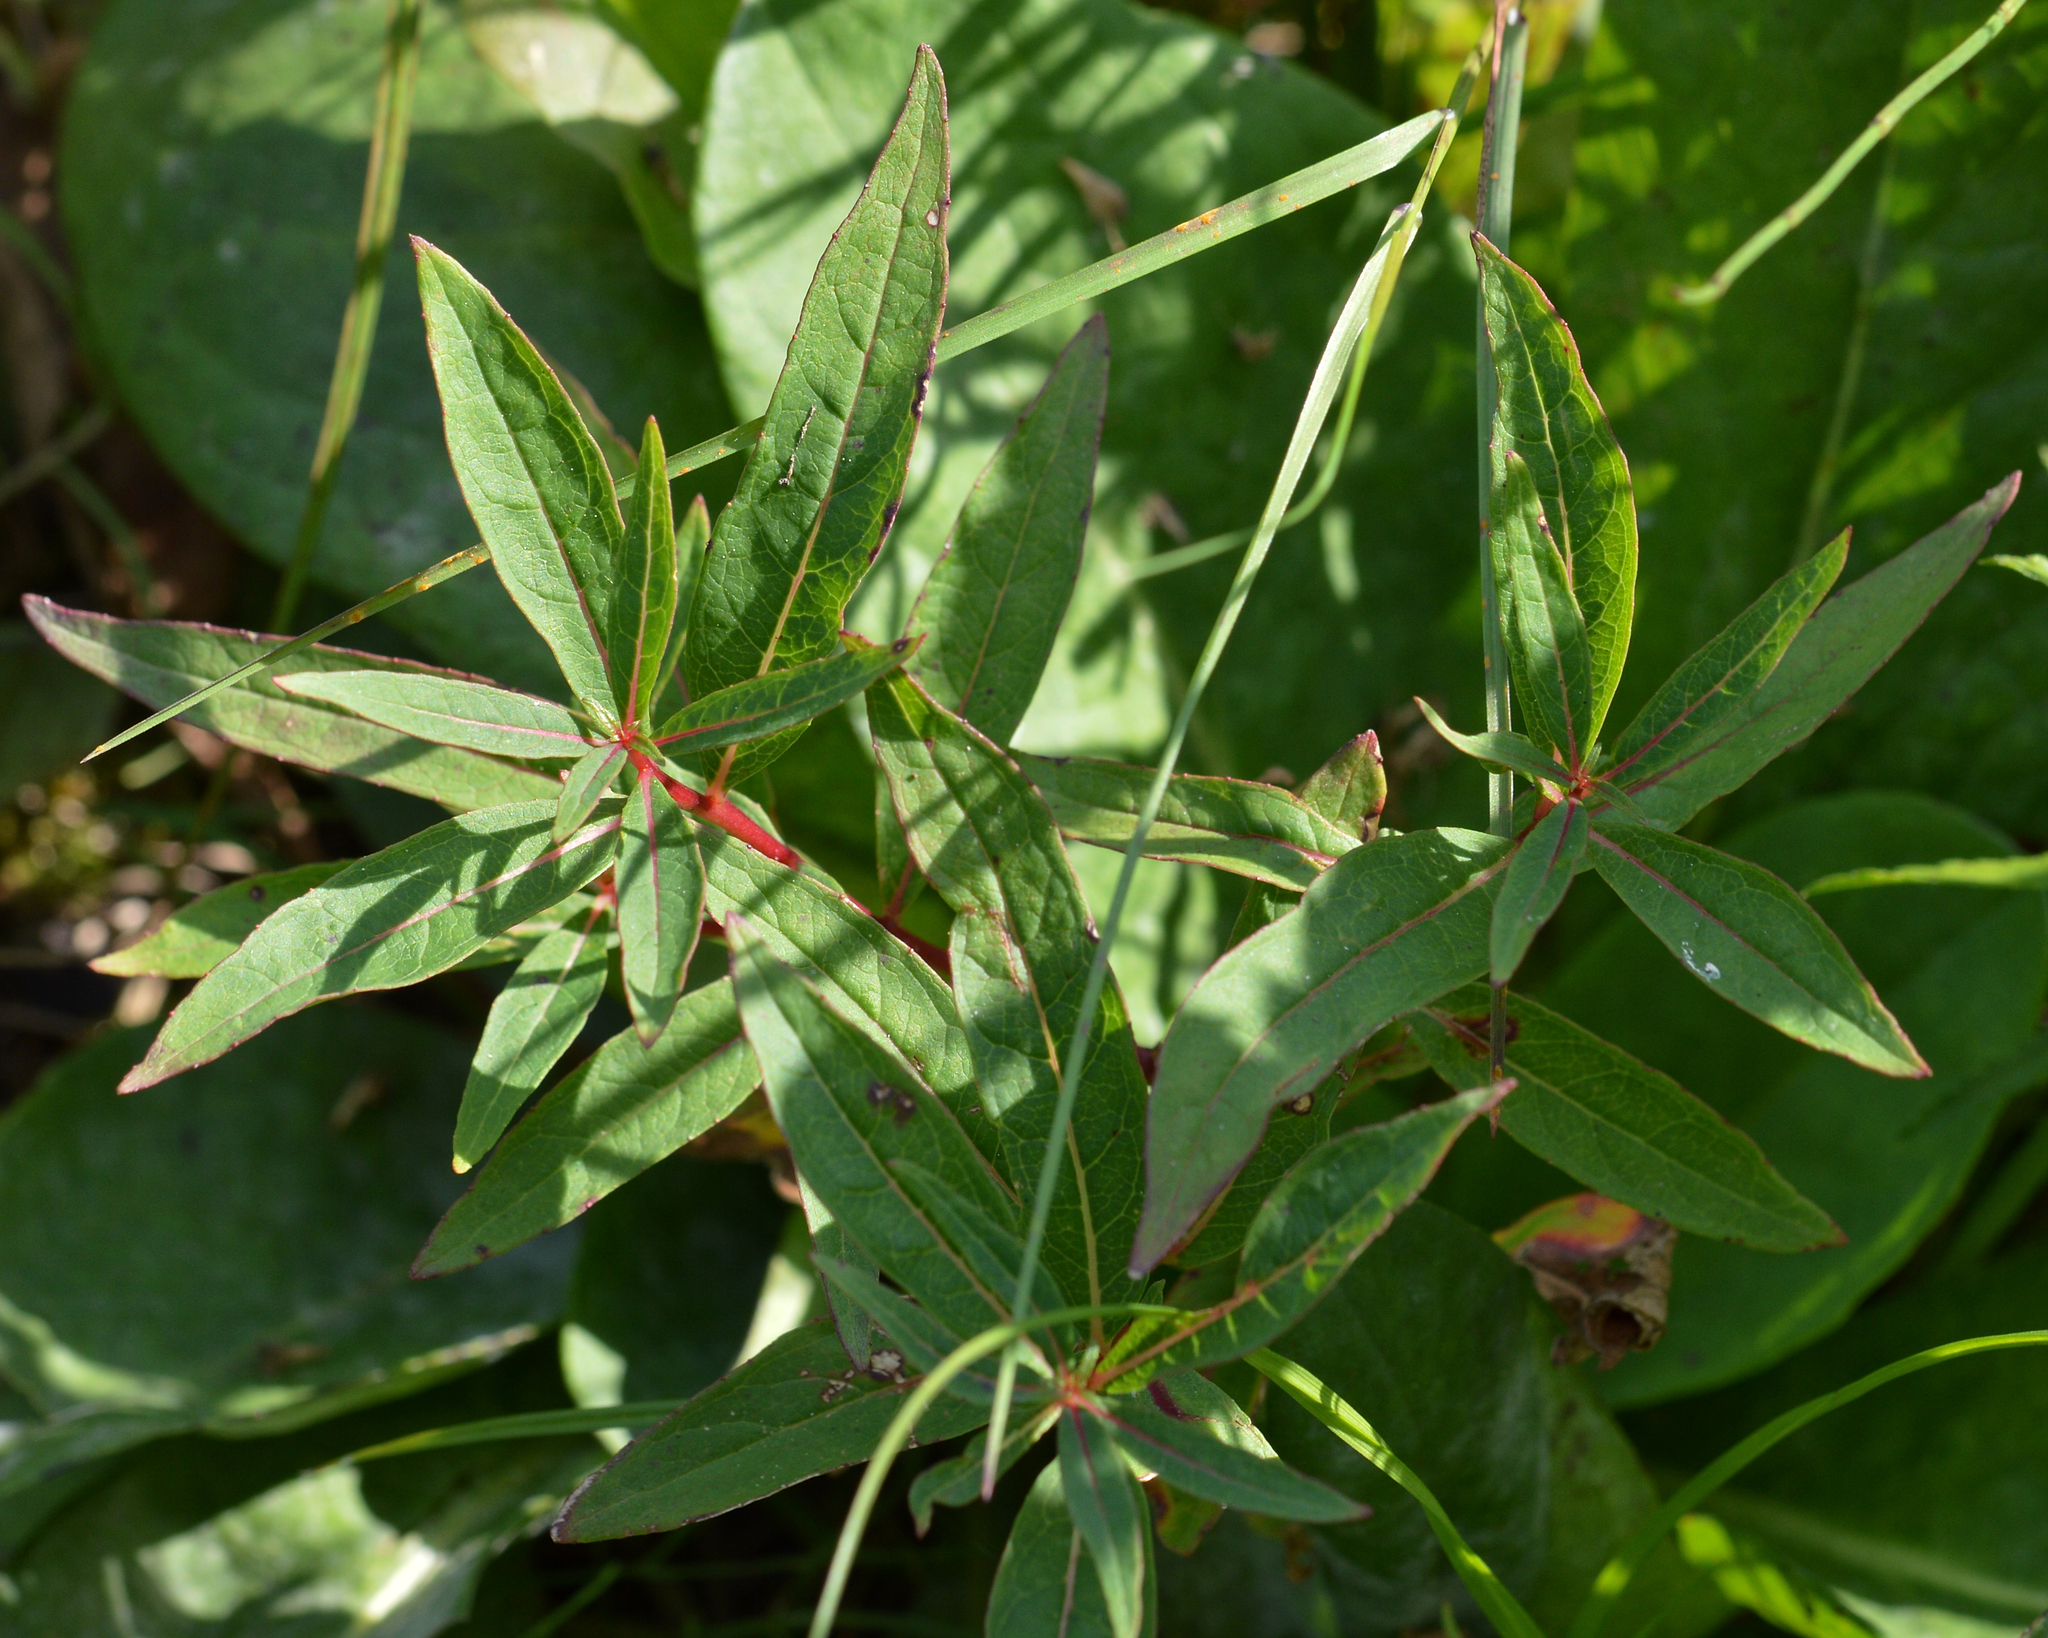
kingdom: Plantae
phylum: Tracheophyta
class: Magnoliopsida
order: Myrtales
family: Onagraceae
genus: Chamaenerion
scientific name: Chamaenerion angustifolium
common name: Fireweed
